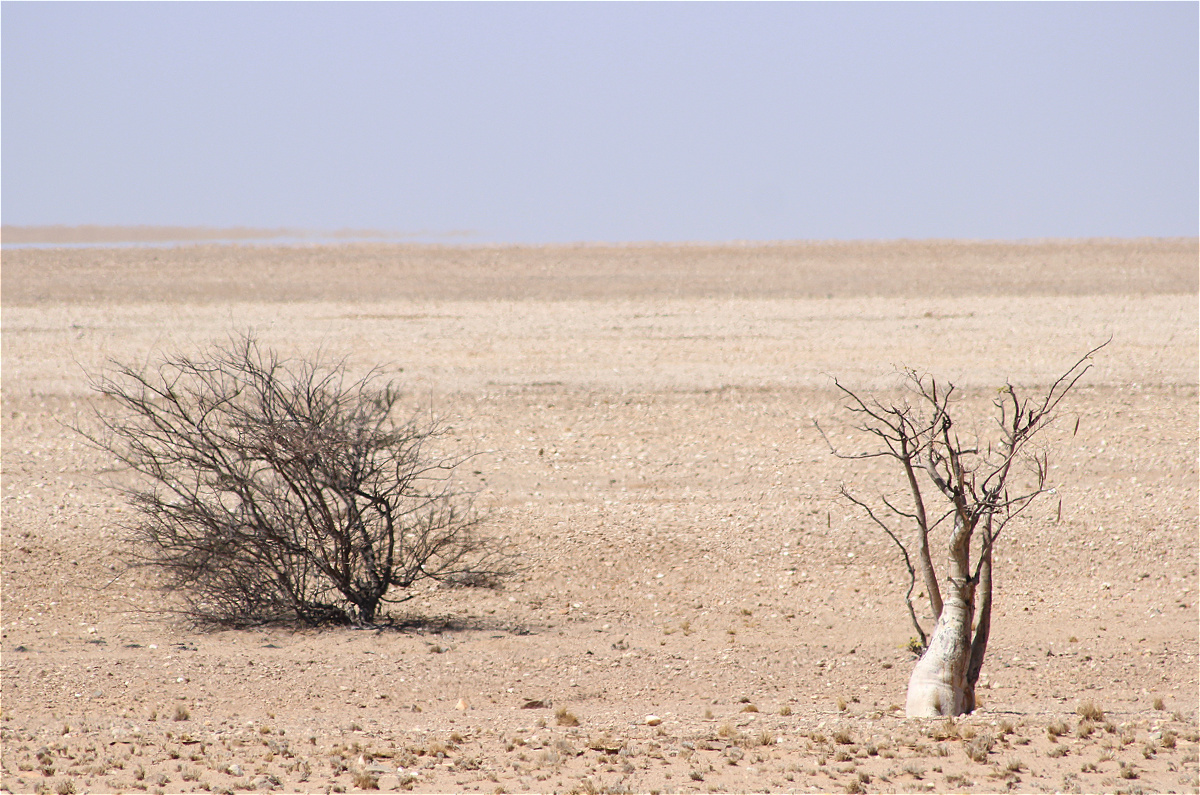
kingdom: Plantae
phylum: Tracheophyta
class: Magnoliopsida
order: Brassicales
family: Moringaceae
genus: Moringa
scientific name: Moringa ovalifolia
